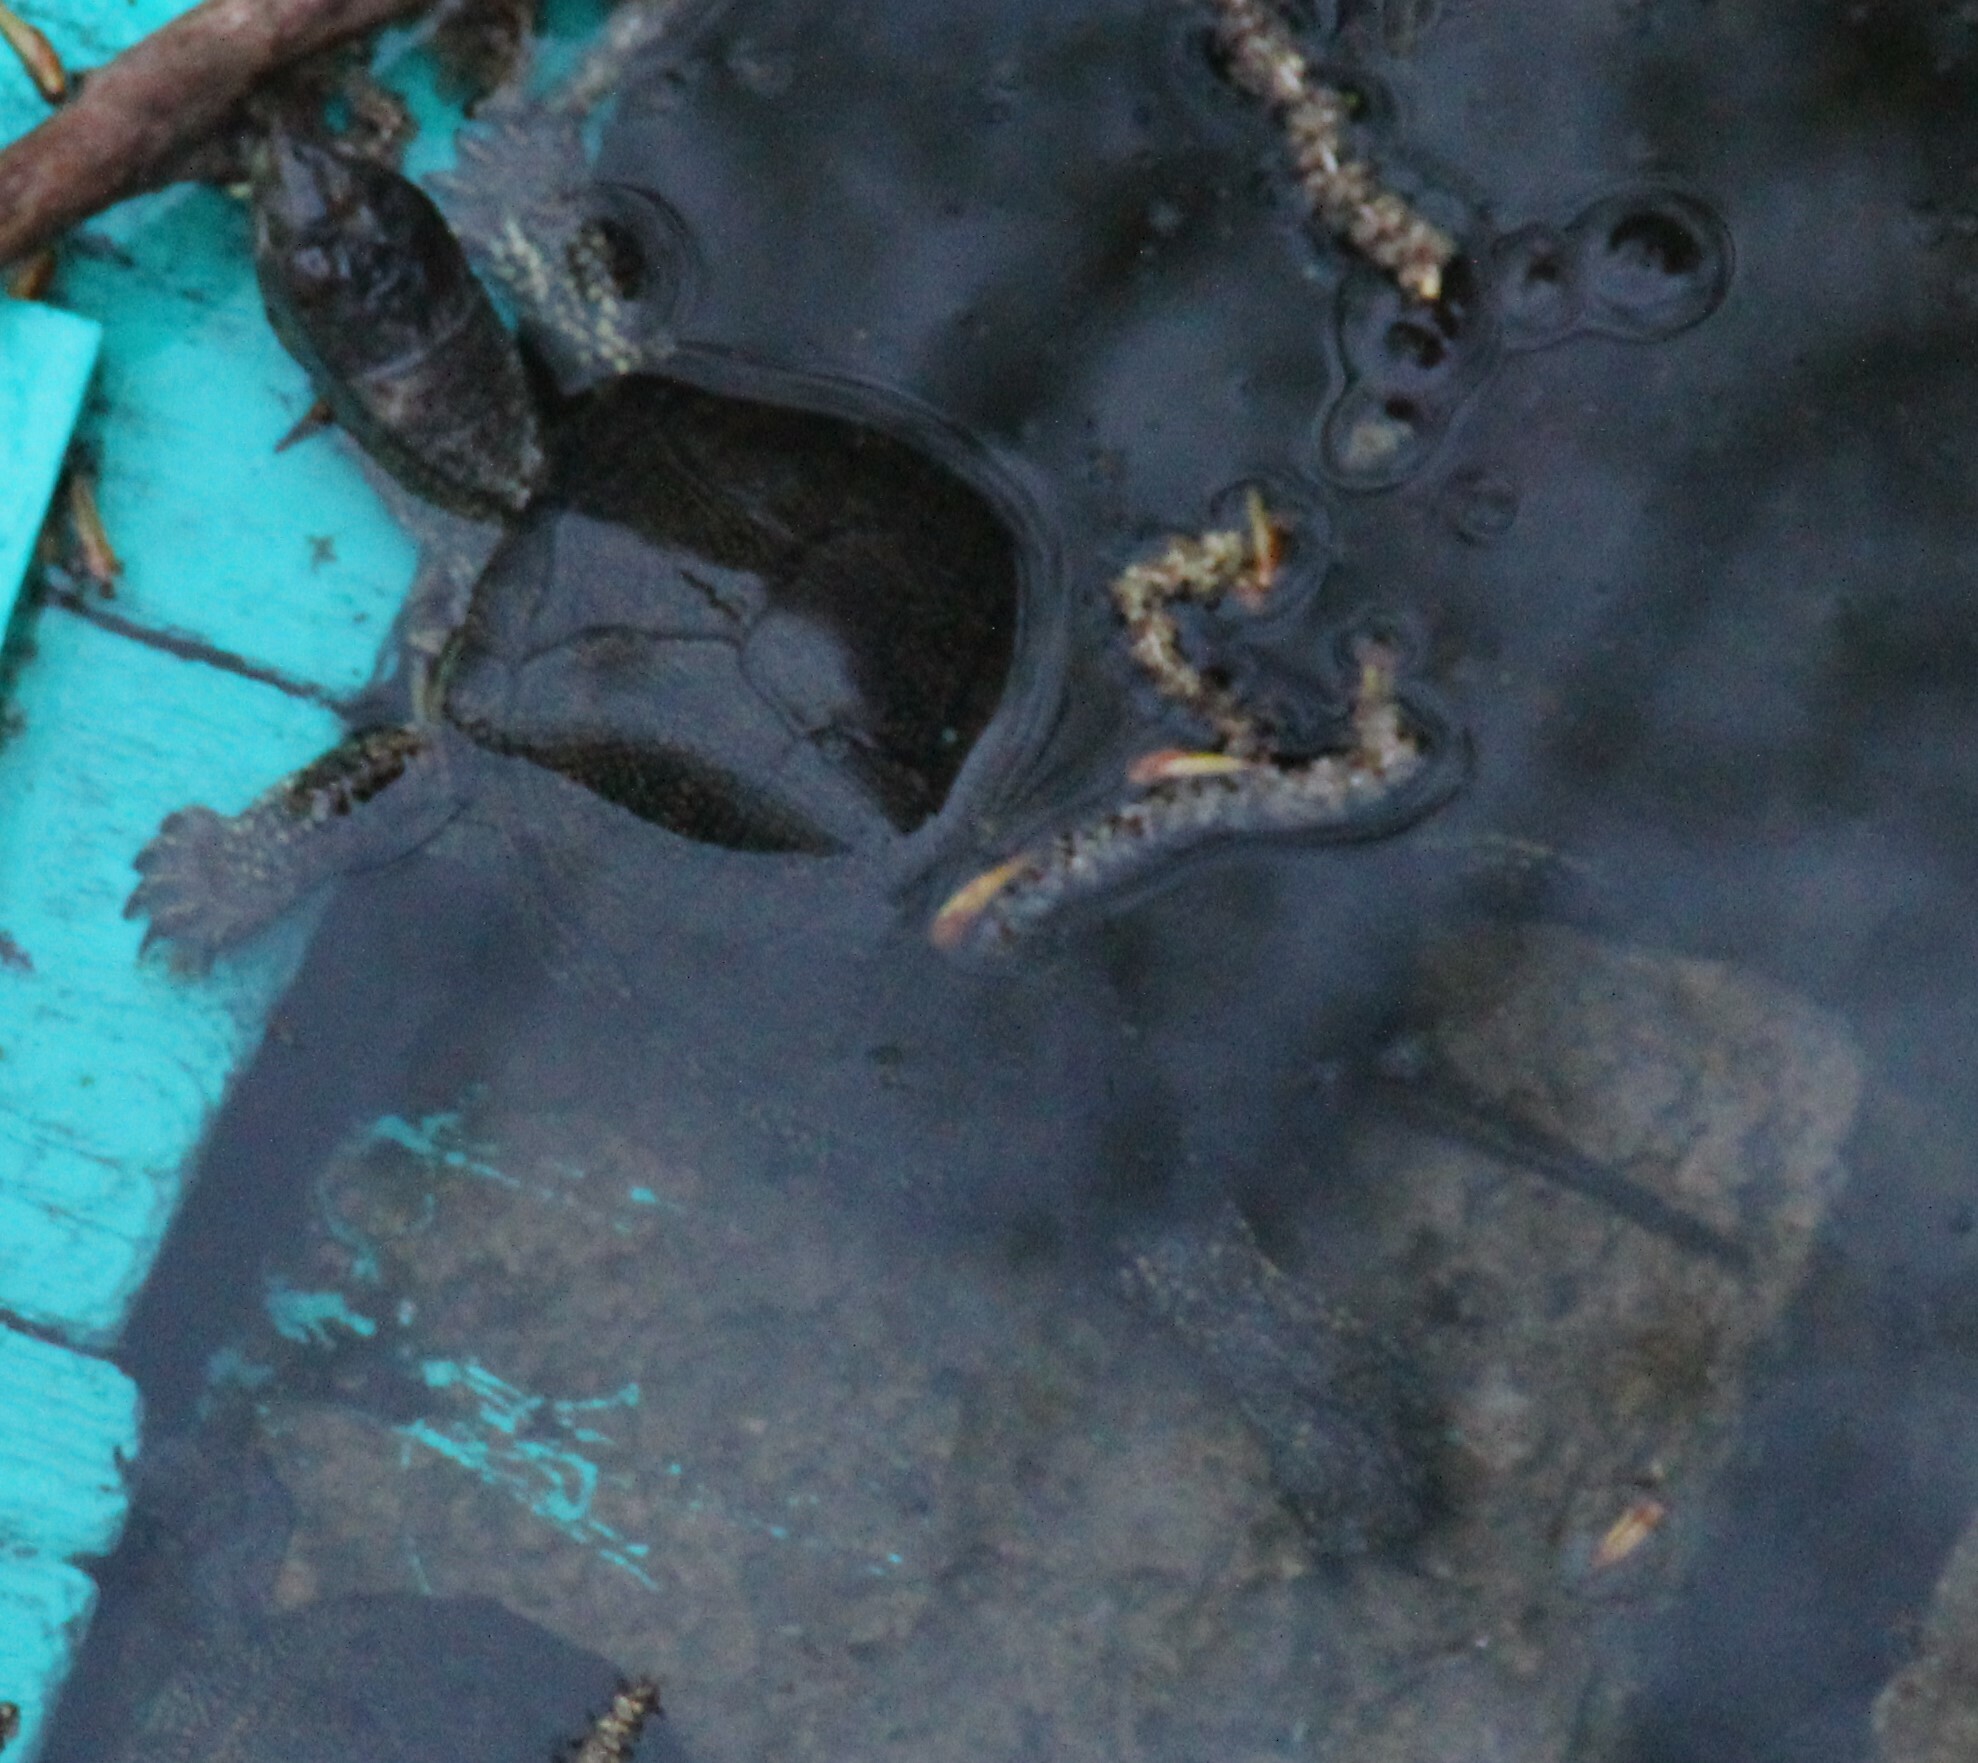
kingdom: Animalia
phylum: Chordata
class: Testudines
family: Emydidae
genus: Emys
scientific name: Emys orbicularis
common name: European pond turtle
